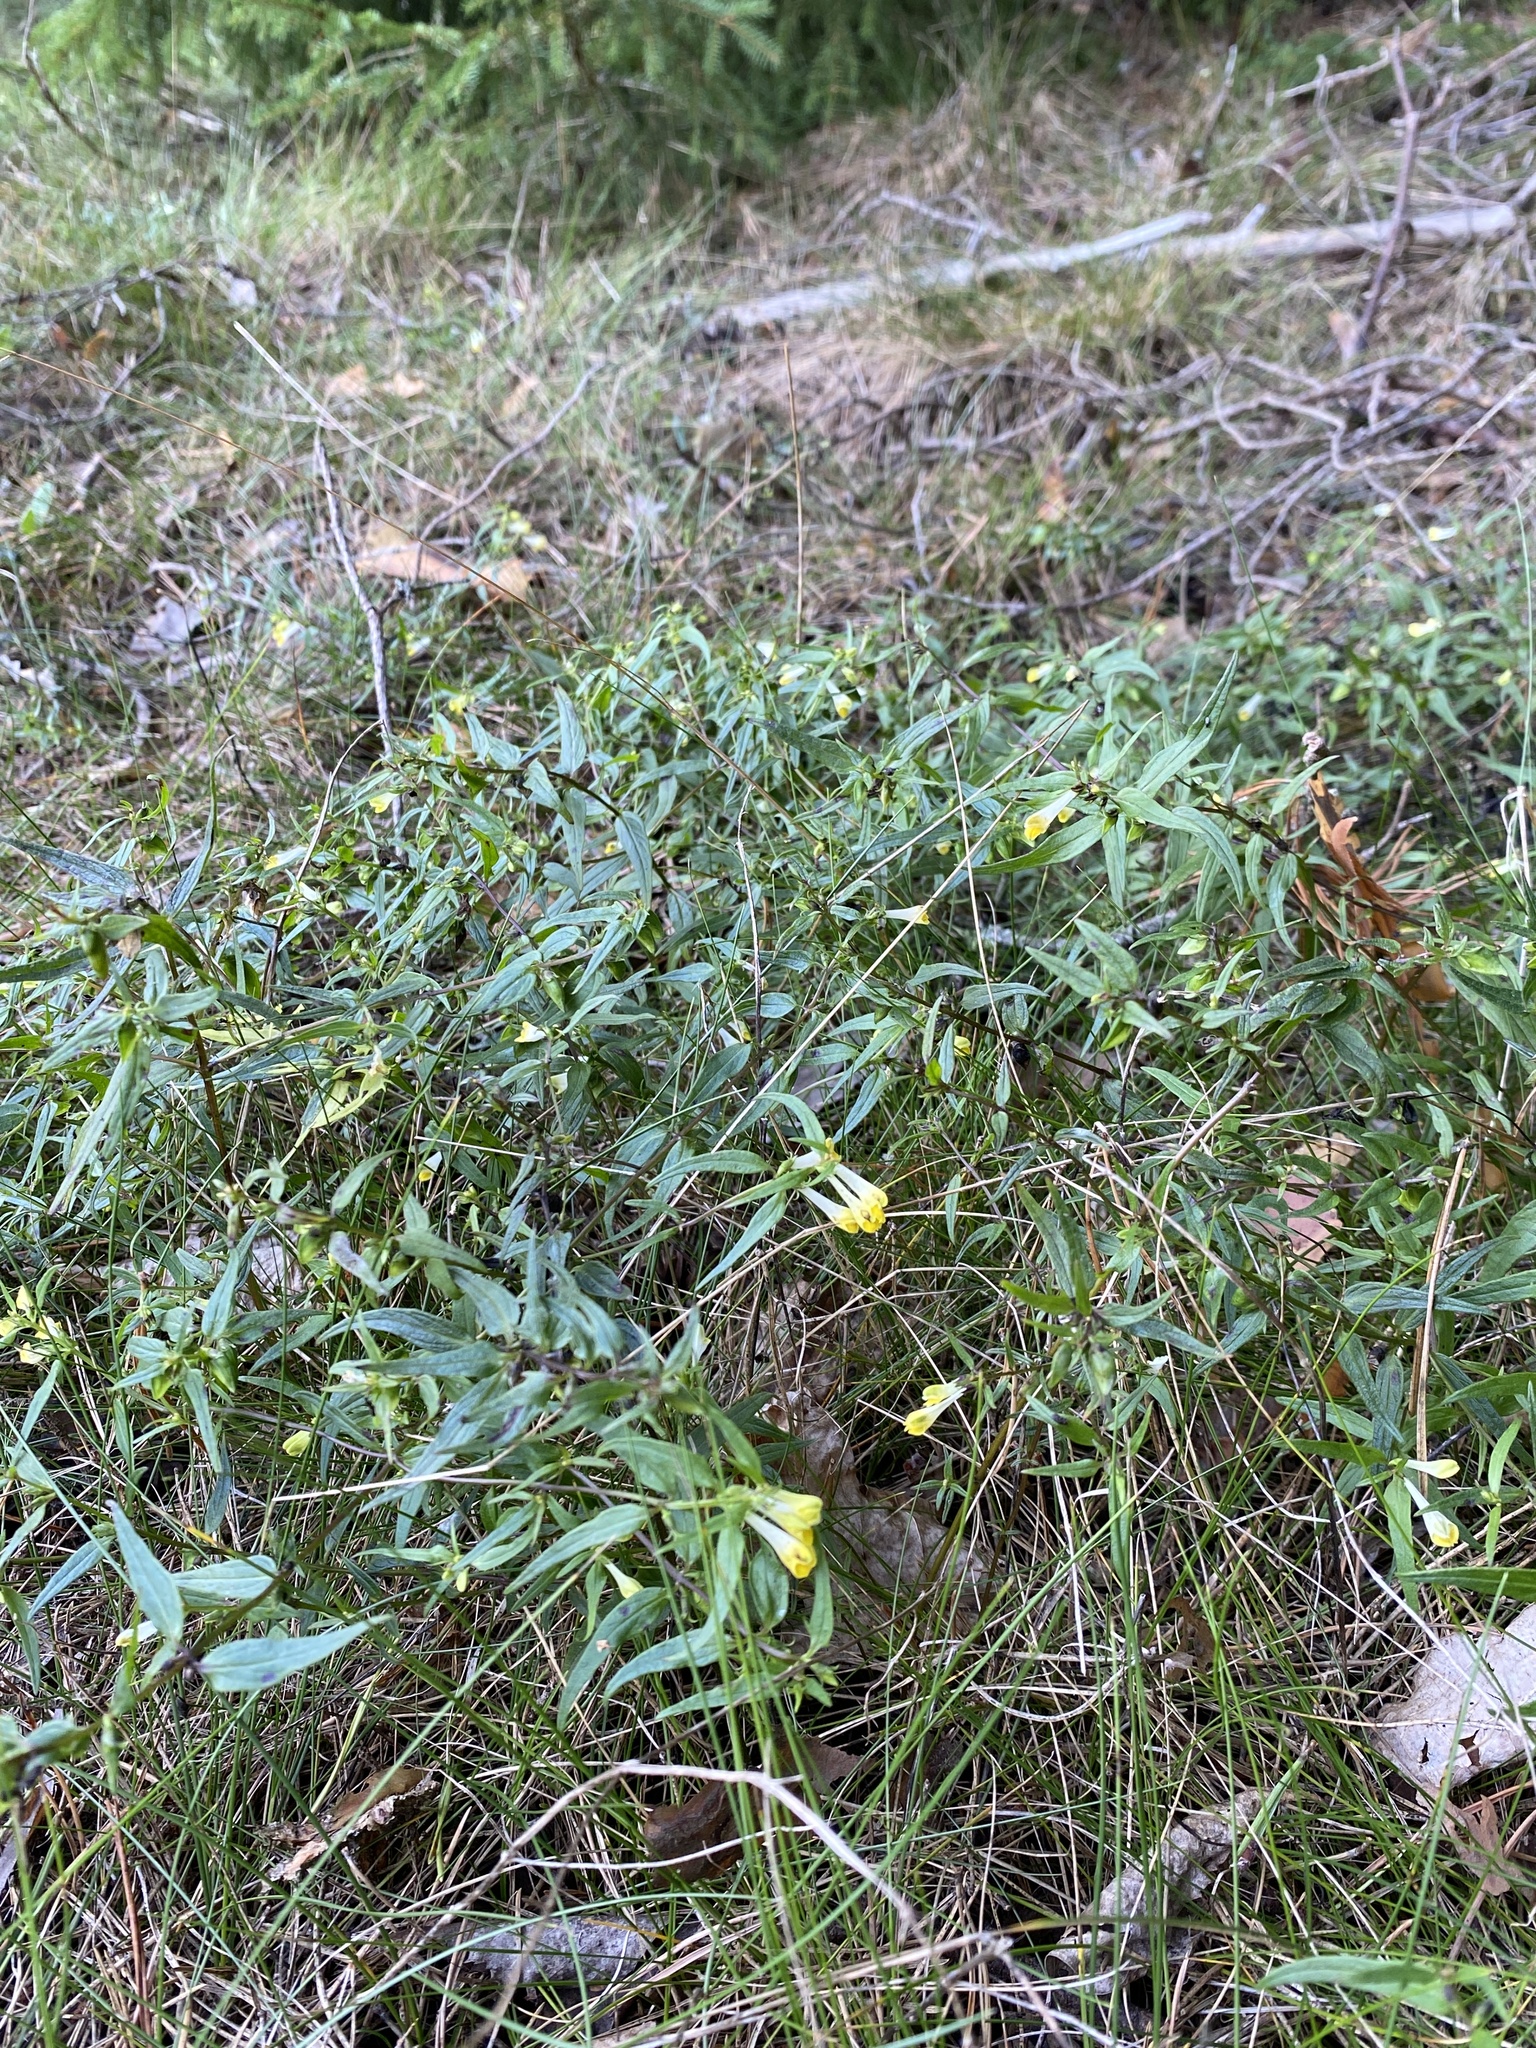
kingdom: Plantae
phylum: Tracheophyta
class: Magnoliopsida
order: Lamiales
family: Orobanchaceae
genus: Melampyrum
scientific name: Melampyrum pratense
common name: Common cow-wheat
